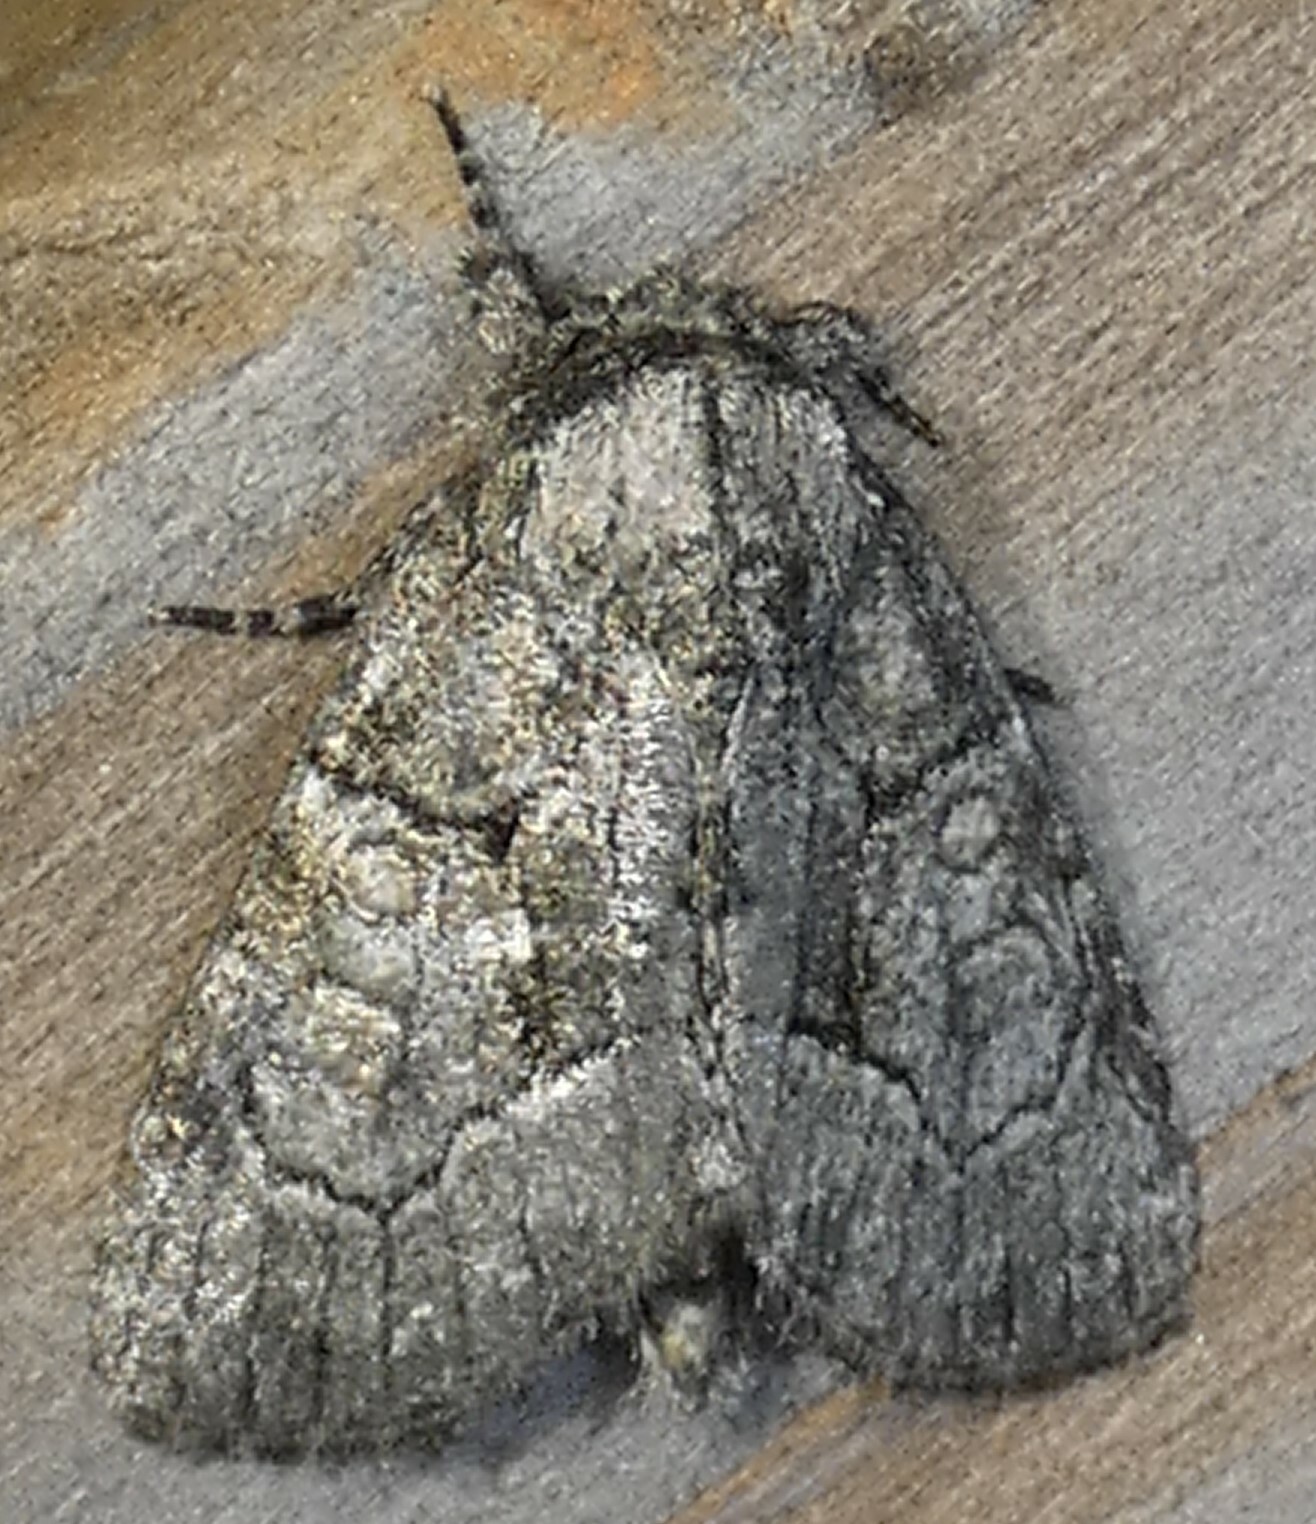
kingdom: Animalia
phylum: Arthropoda
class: Insecta
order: Lepidoptera
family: Noctuidae
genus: Raphia
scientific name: Raphia frater
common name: Brother
